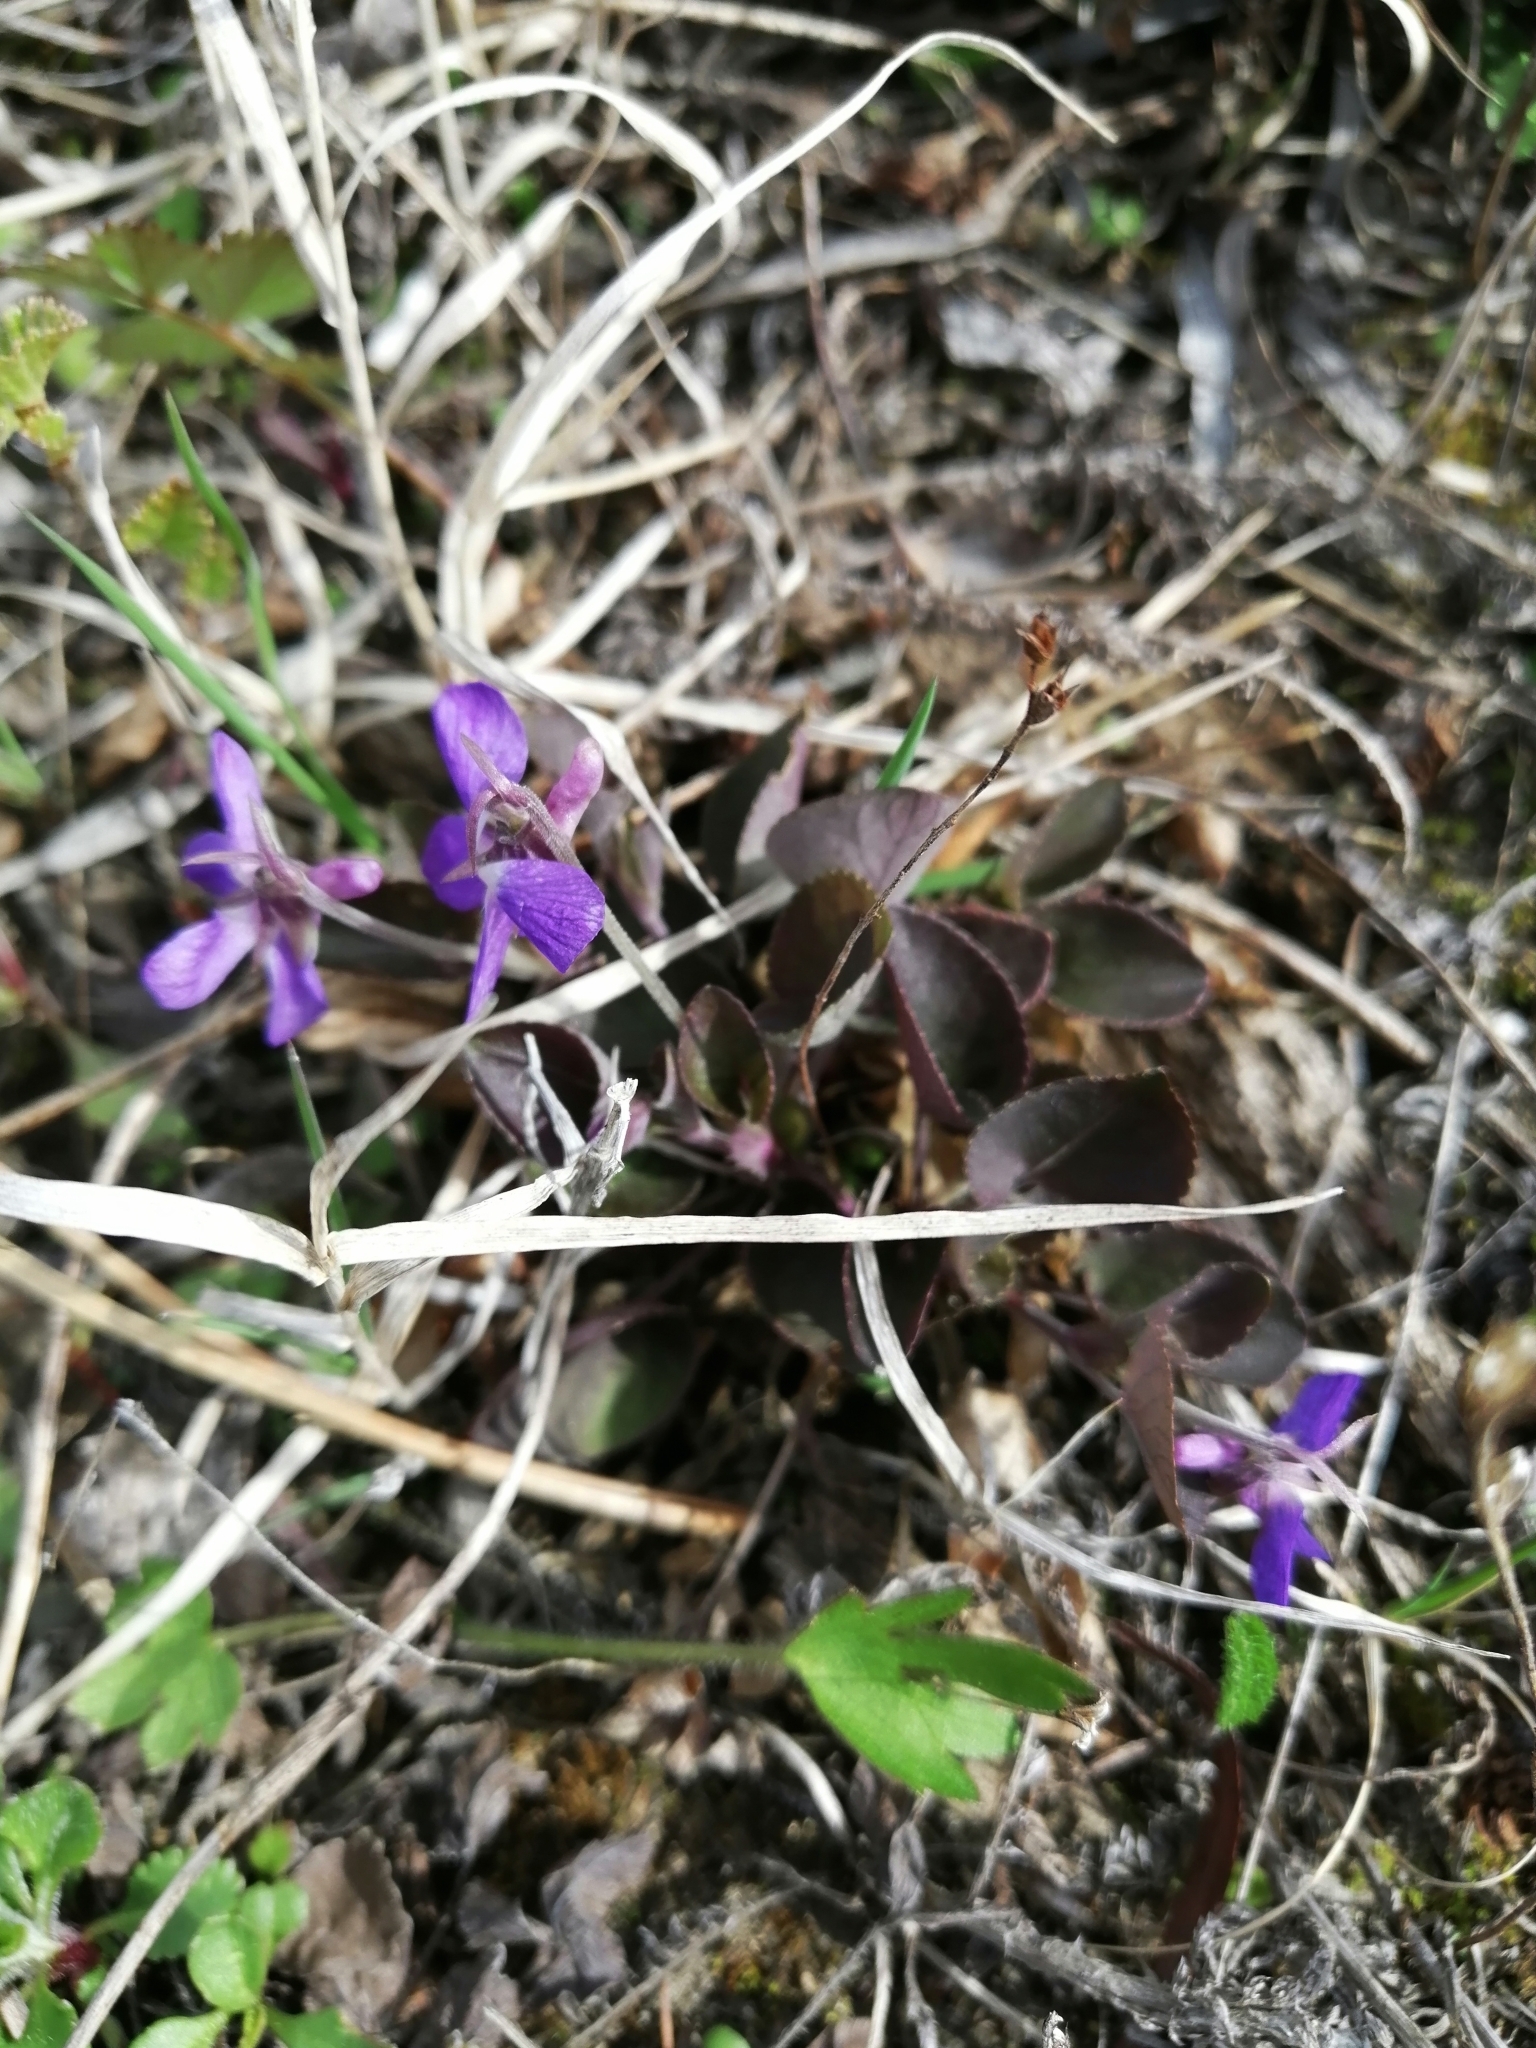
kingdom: Plantae
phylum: Tracheophyta
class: Magnoliopsida
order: Malpighiales
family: Violaceae
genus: Viola
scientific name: Viola rupestris
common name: Teesdale violet
